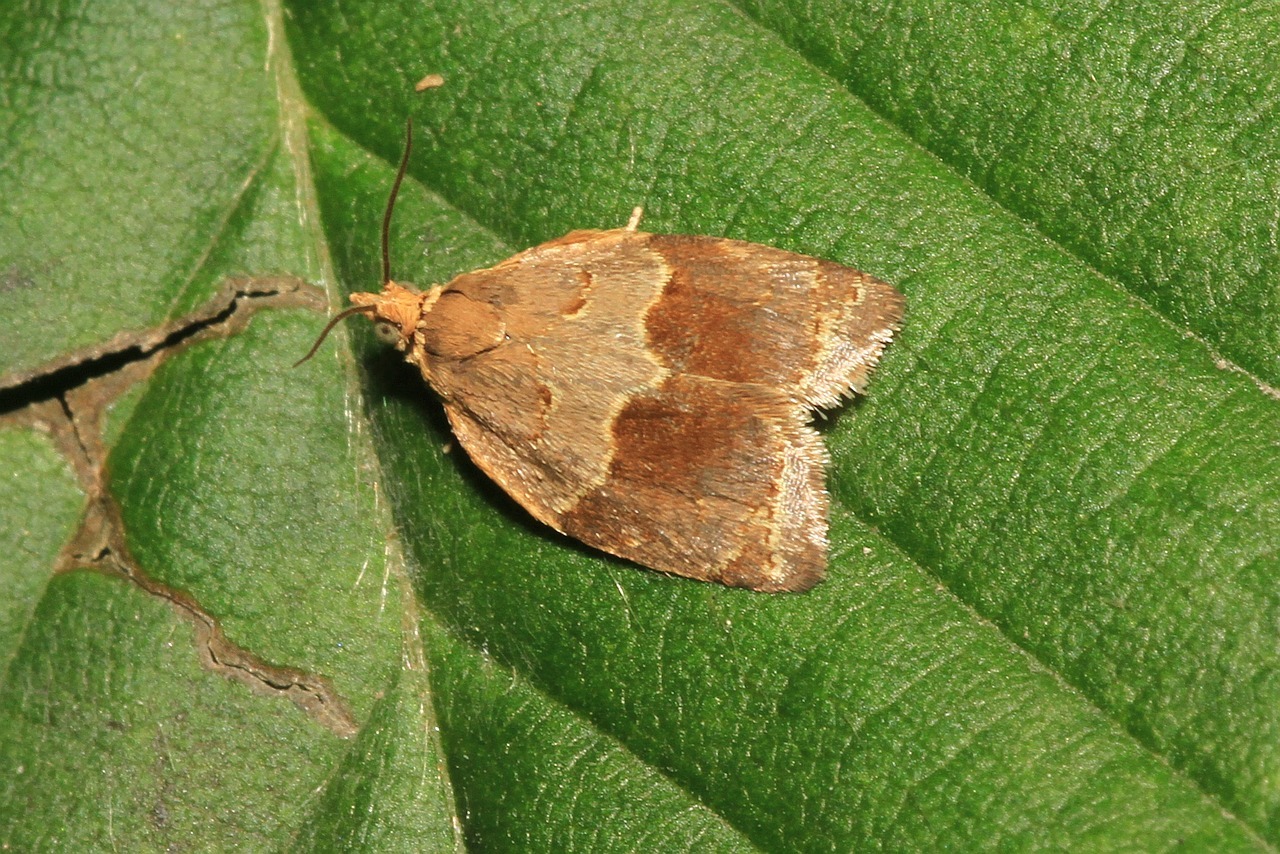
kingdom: Animalia
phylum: Arthropoda
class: Insecta
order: Lepidoptera
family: Tortricidae
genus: Clepsis
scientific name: Clepsis dumicolana
